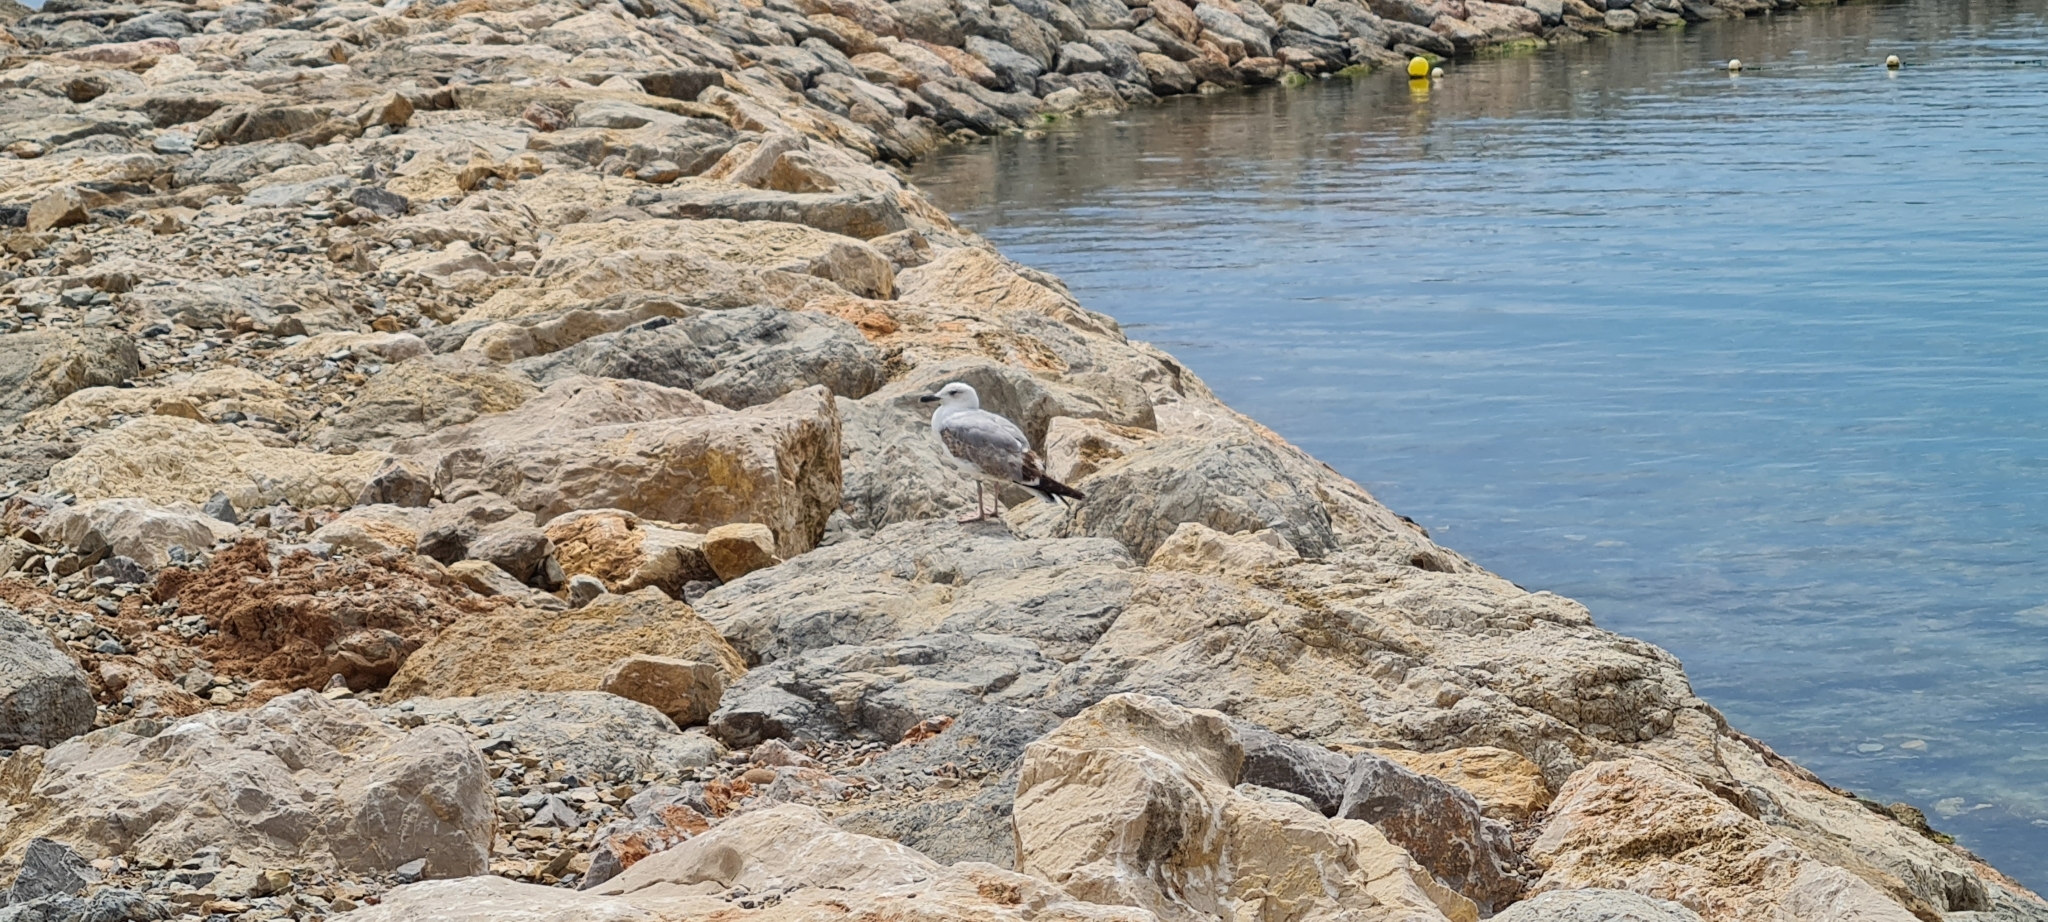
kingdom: Animalia
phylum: Chordata
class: Aves
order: Charadriiformes
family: Laridae
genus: Larus
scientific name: Larus michahellis
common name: Yellow-legged gull
